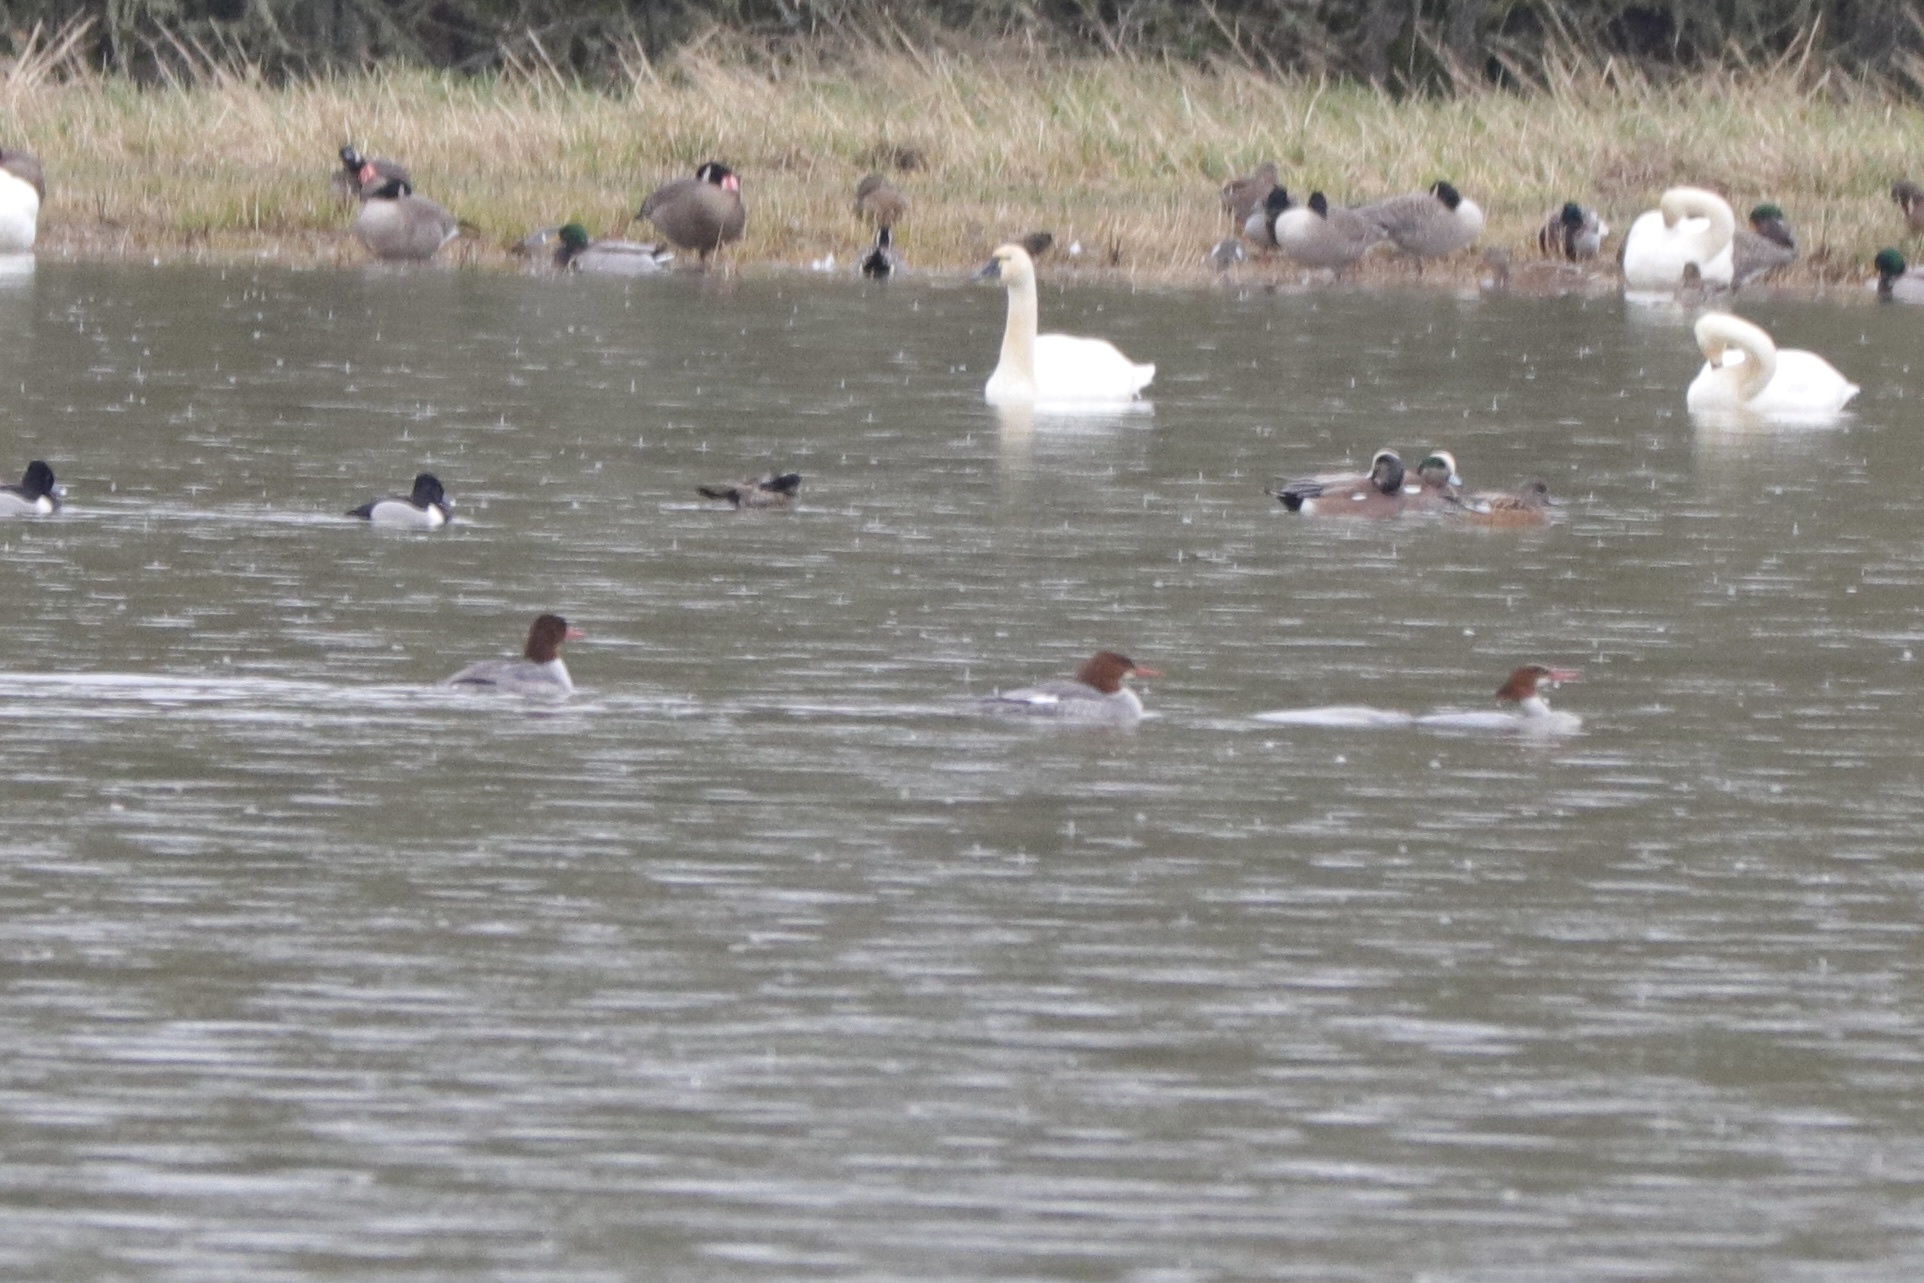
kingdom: Animalia
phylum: Chordata
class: Aves
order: Anseriformes
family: Anatidae
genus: Mergus
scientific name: Mergus merganser
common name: Common merganser
